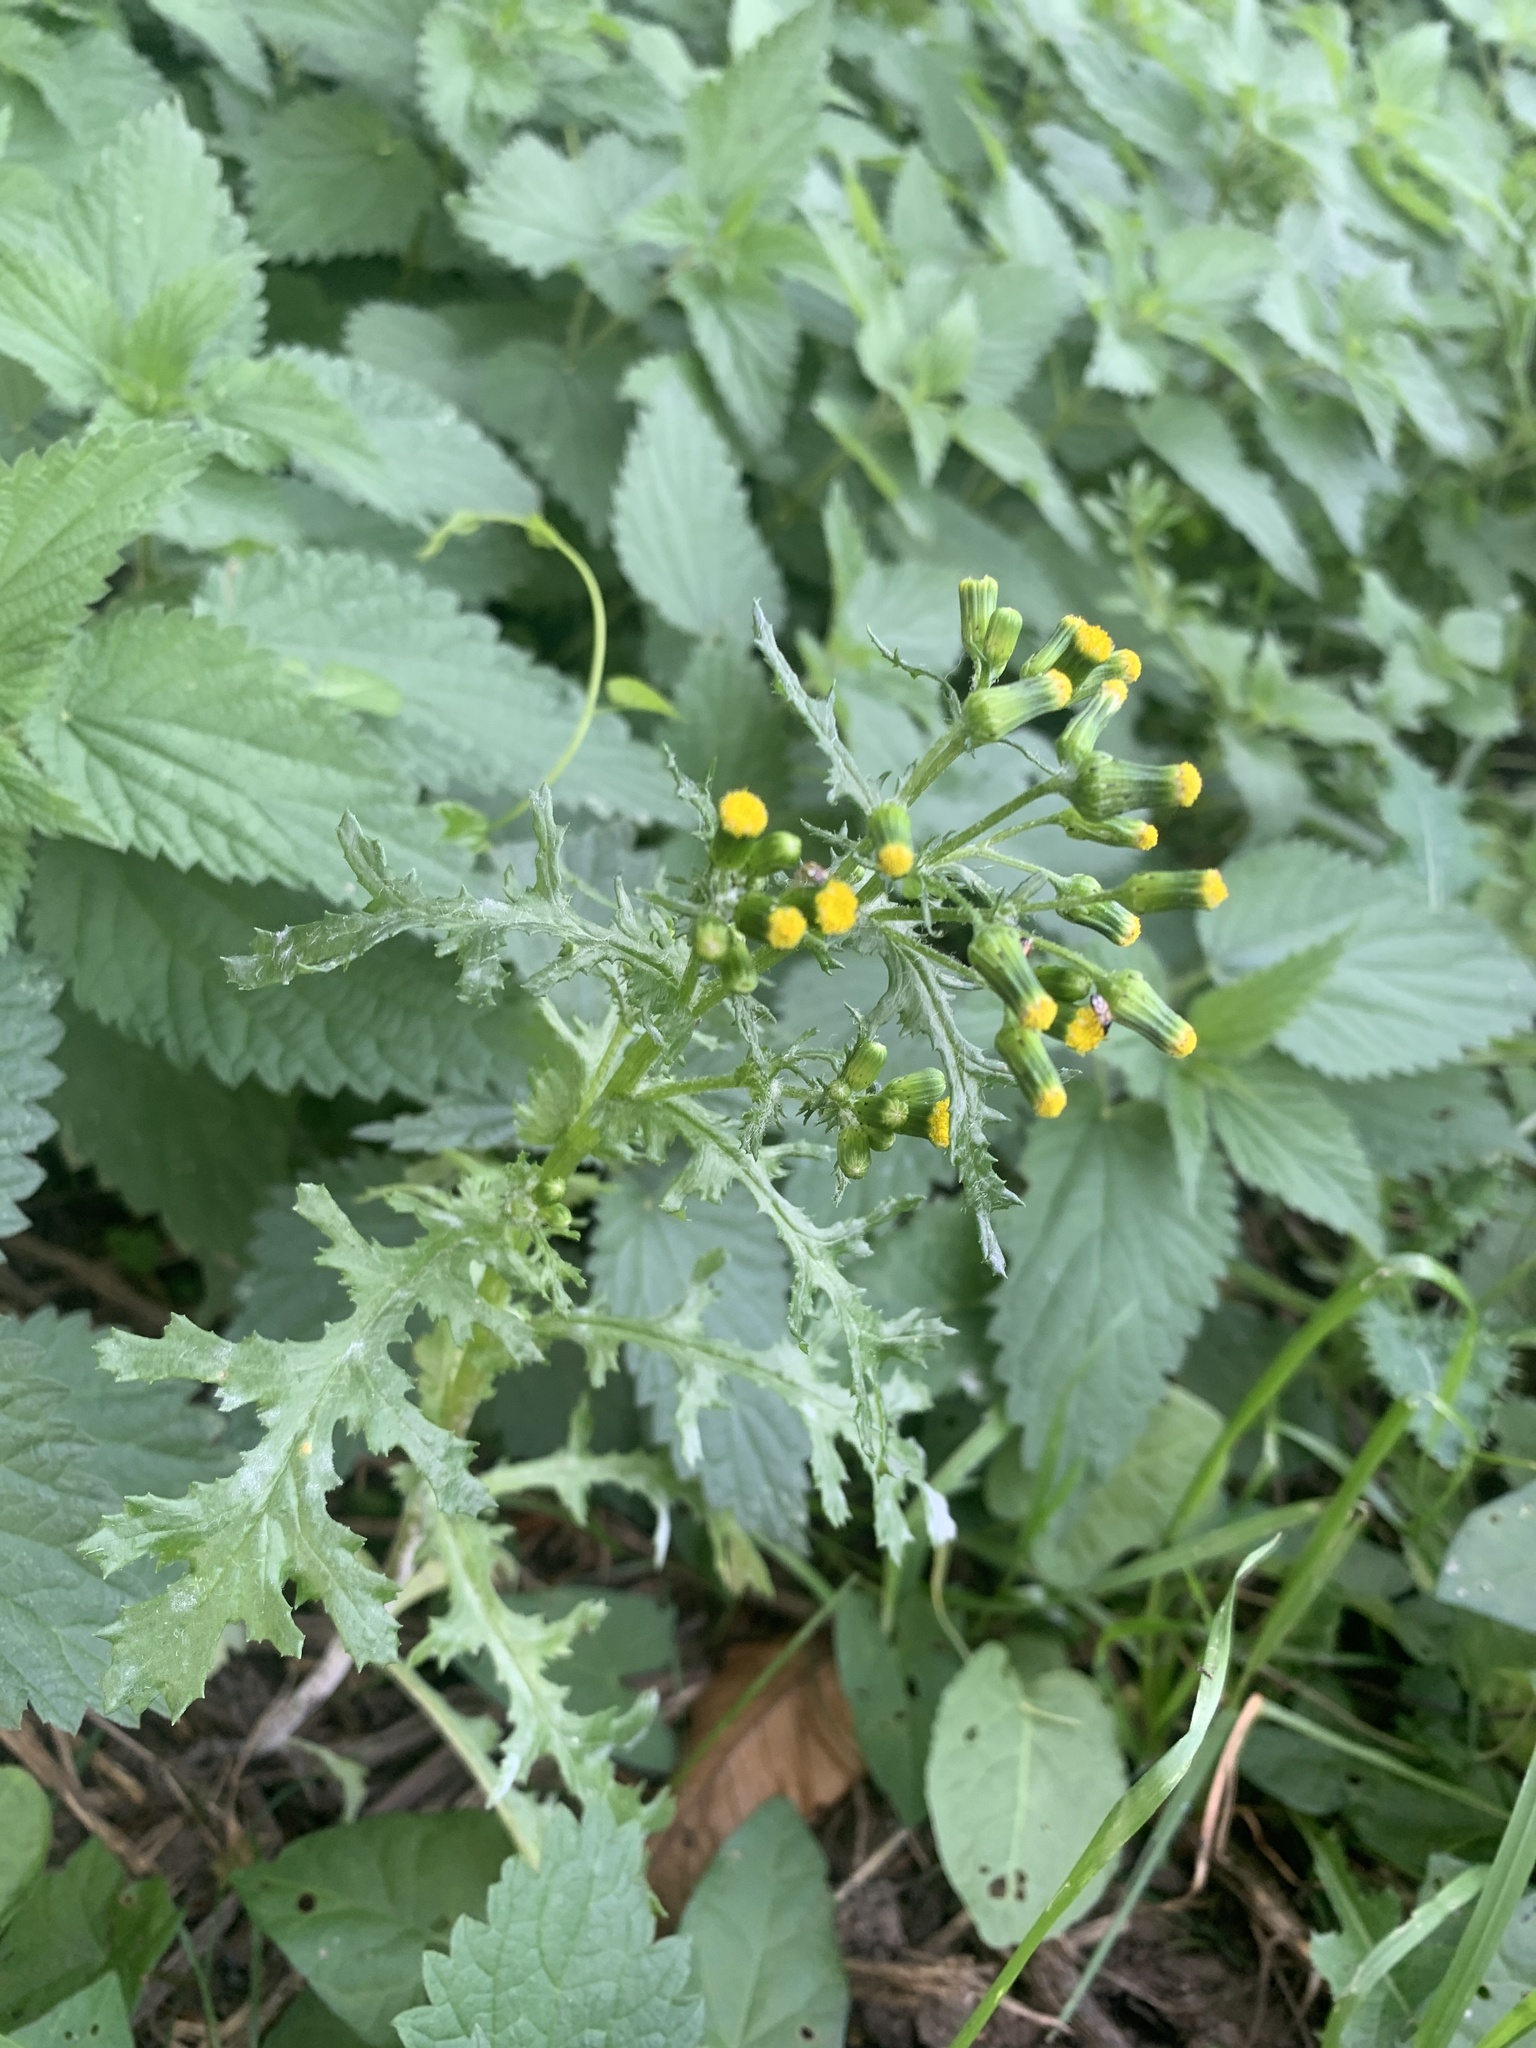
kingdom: Plantae
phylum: Tracheophyta
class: Magnoliopsida
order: Asterales
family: Asteraceae
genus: Senecio
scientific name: Senecio vulgaris
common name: Old-man-in-the-spring
